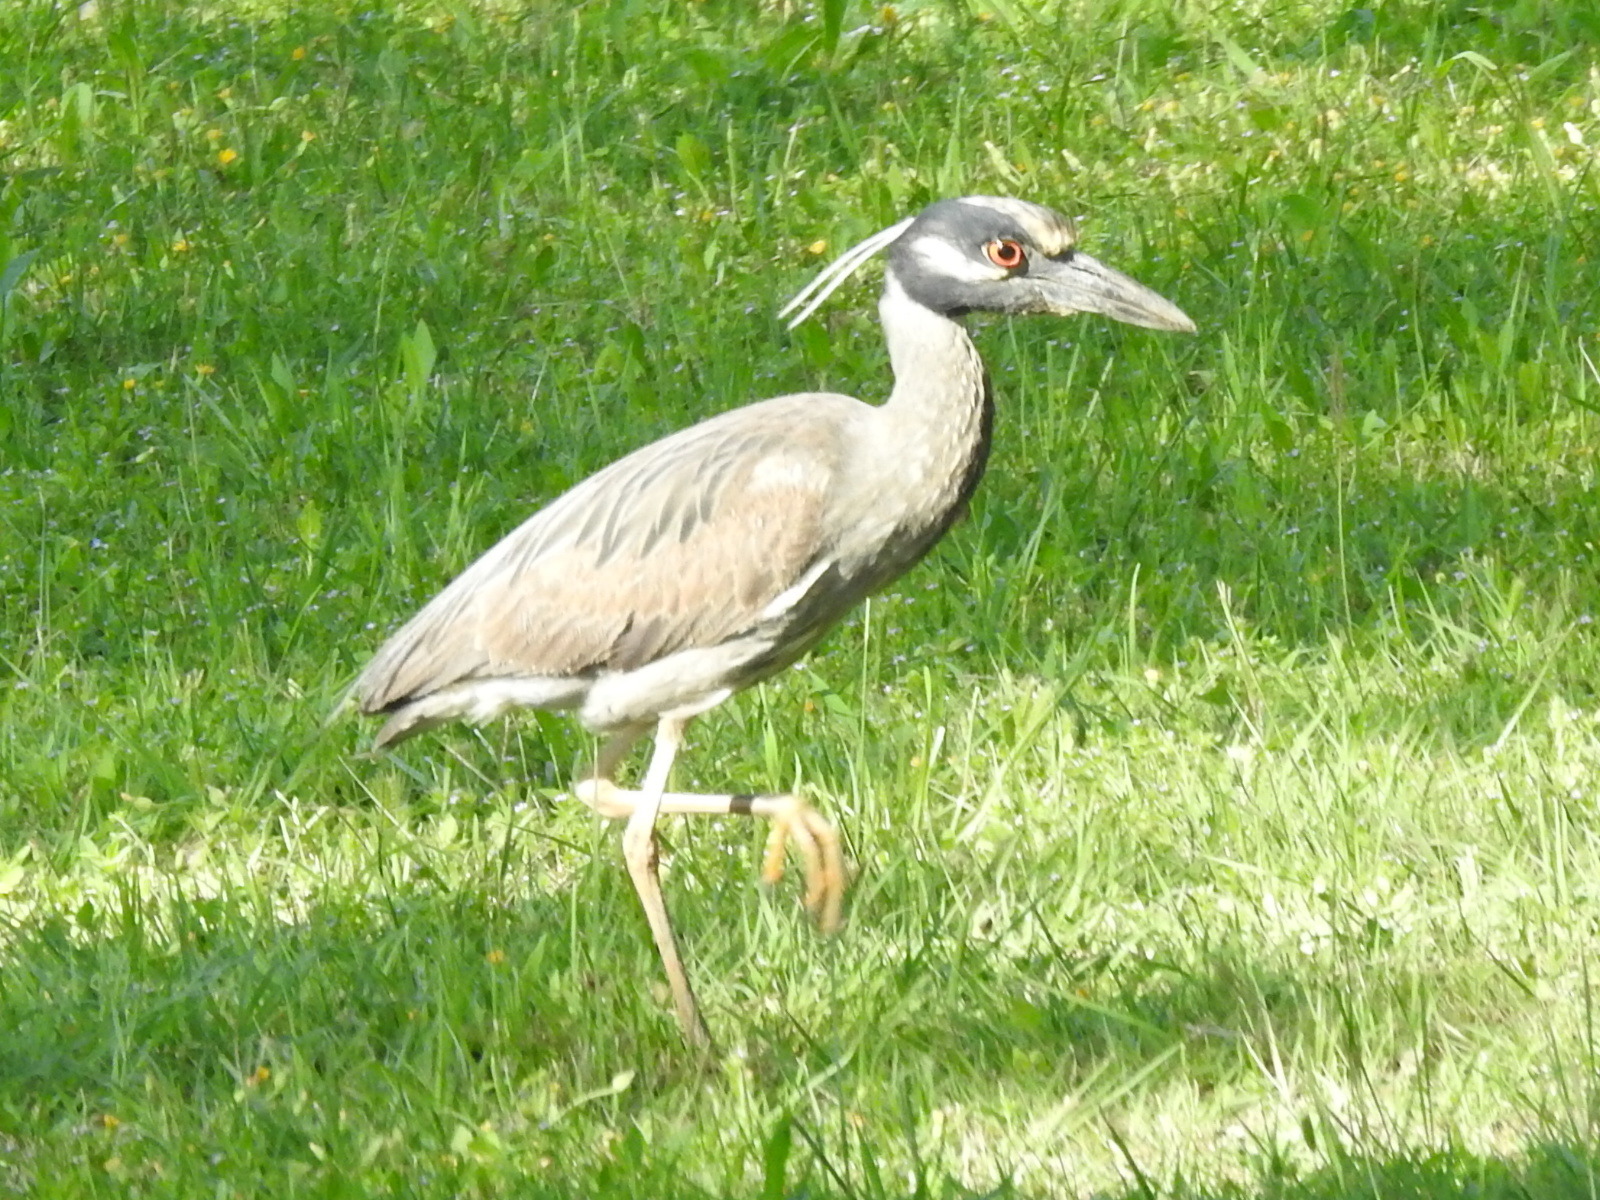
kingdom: Animalia
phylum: Chordata
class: Aves
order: Pelecaniformes
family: Ardeidae
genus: Nyctanassa
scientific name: Nyctanassa violacea
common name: Yellow-crowned night heron
